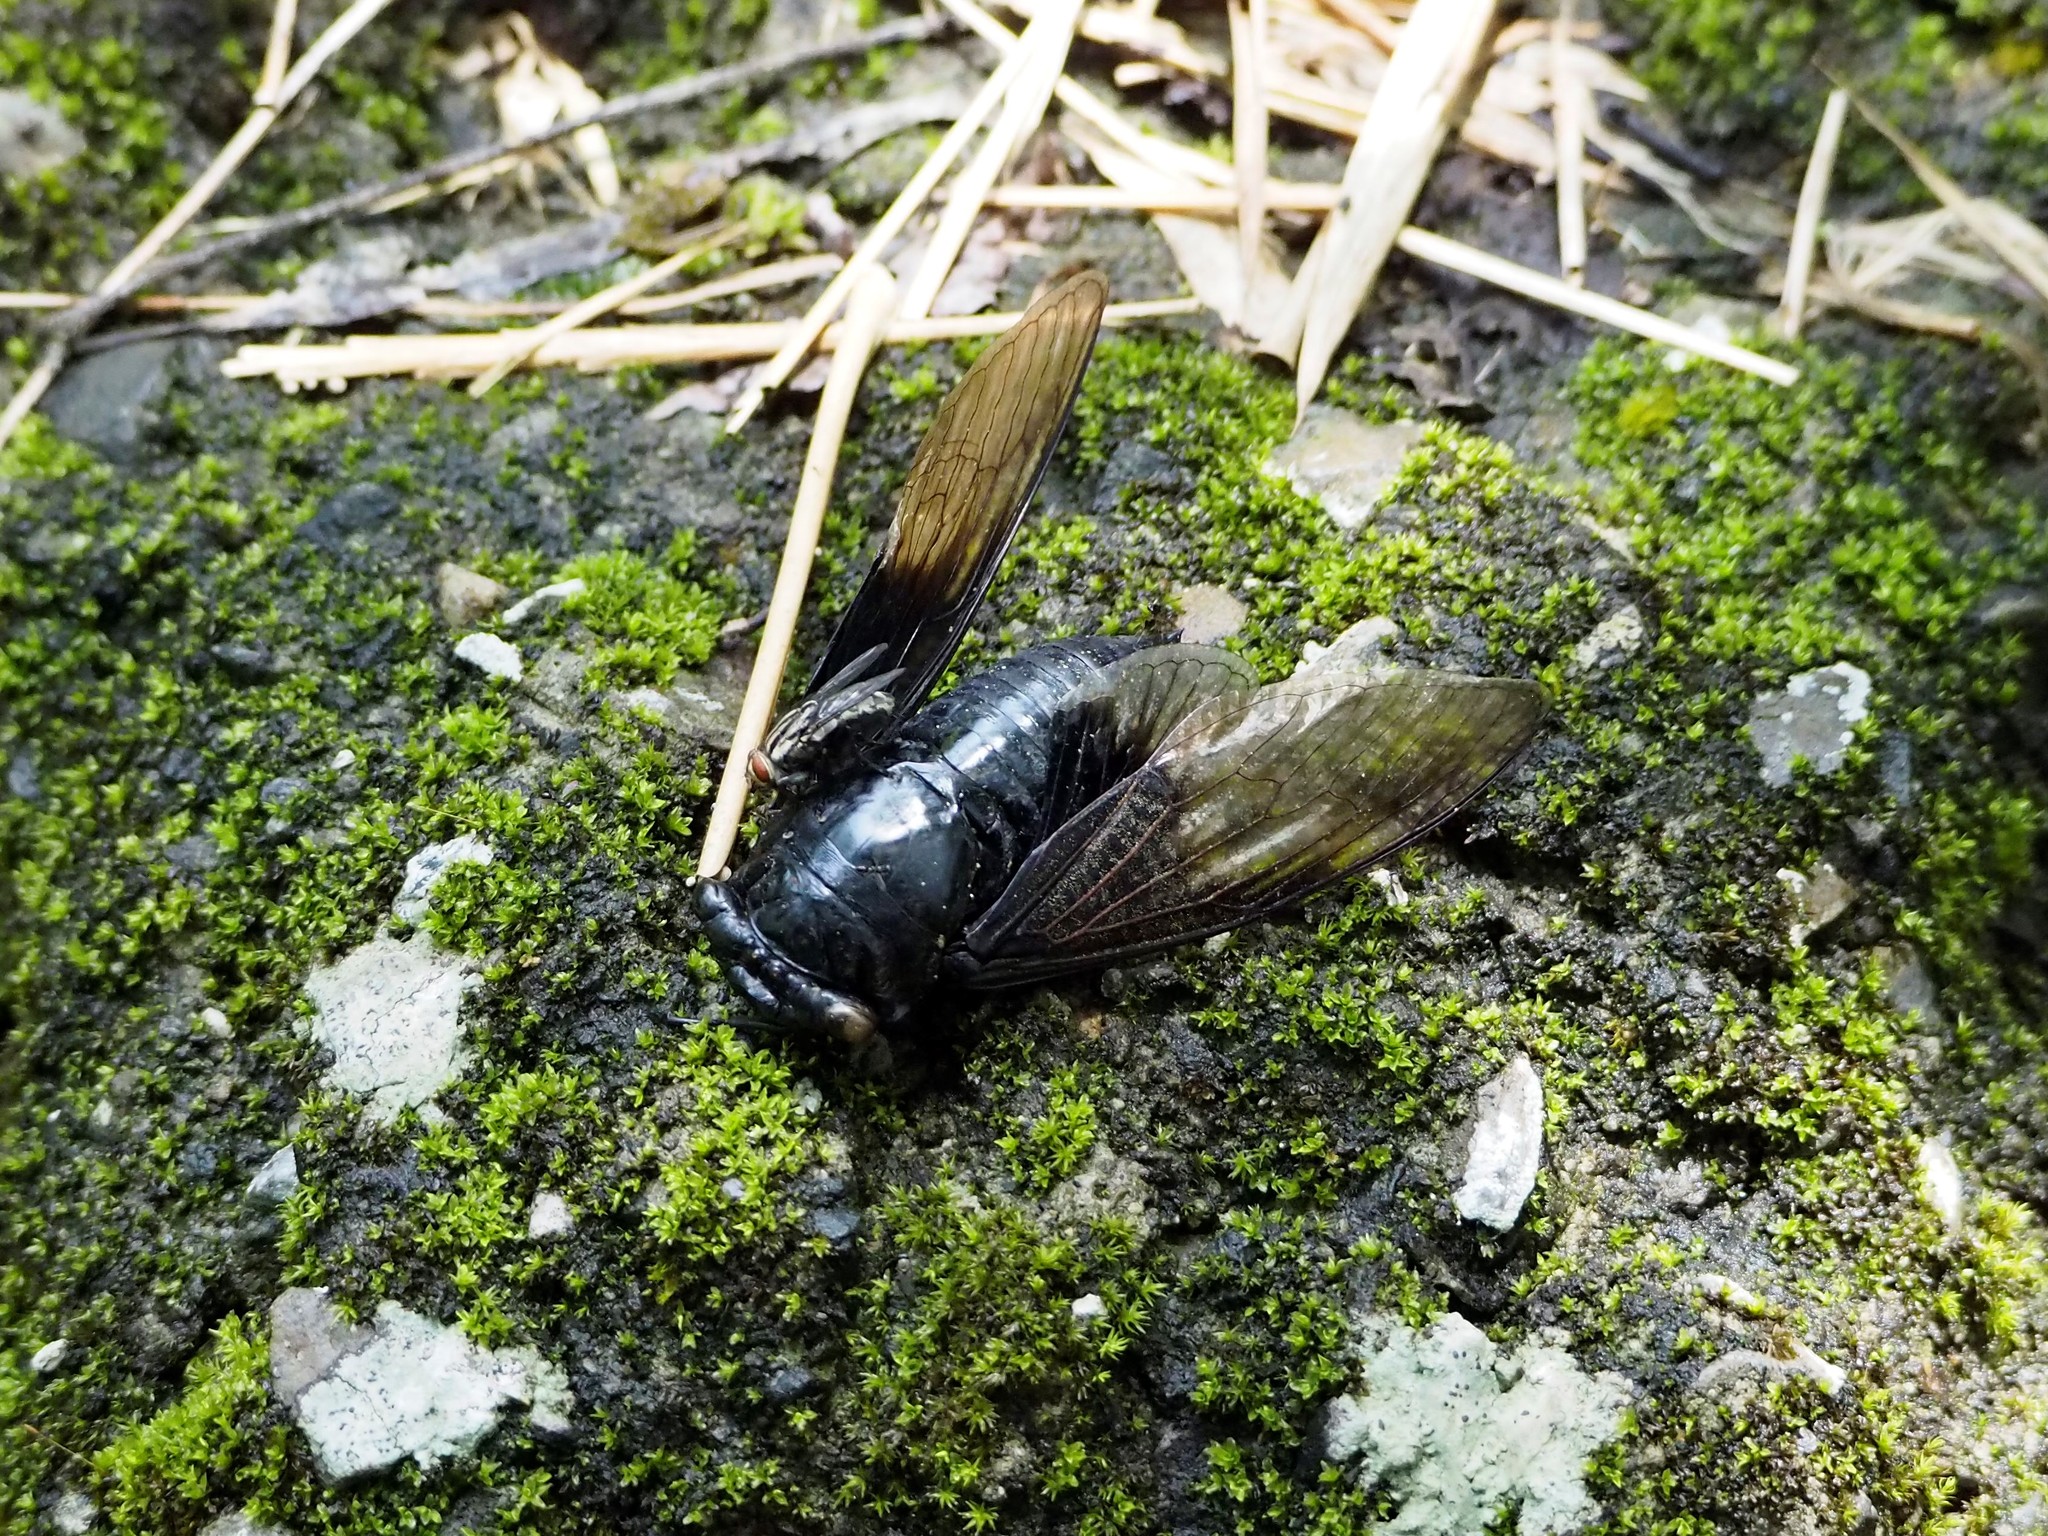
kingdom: Animalia
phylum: Arthropoda
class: Insecta
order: Hemiptera
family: Cicadidae
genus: Cryptotympana
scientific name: Cryptotympana holsti
